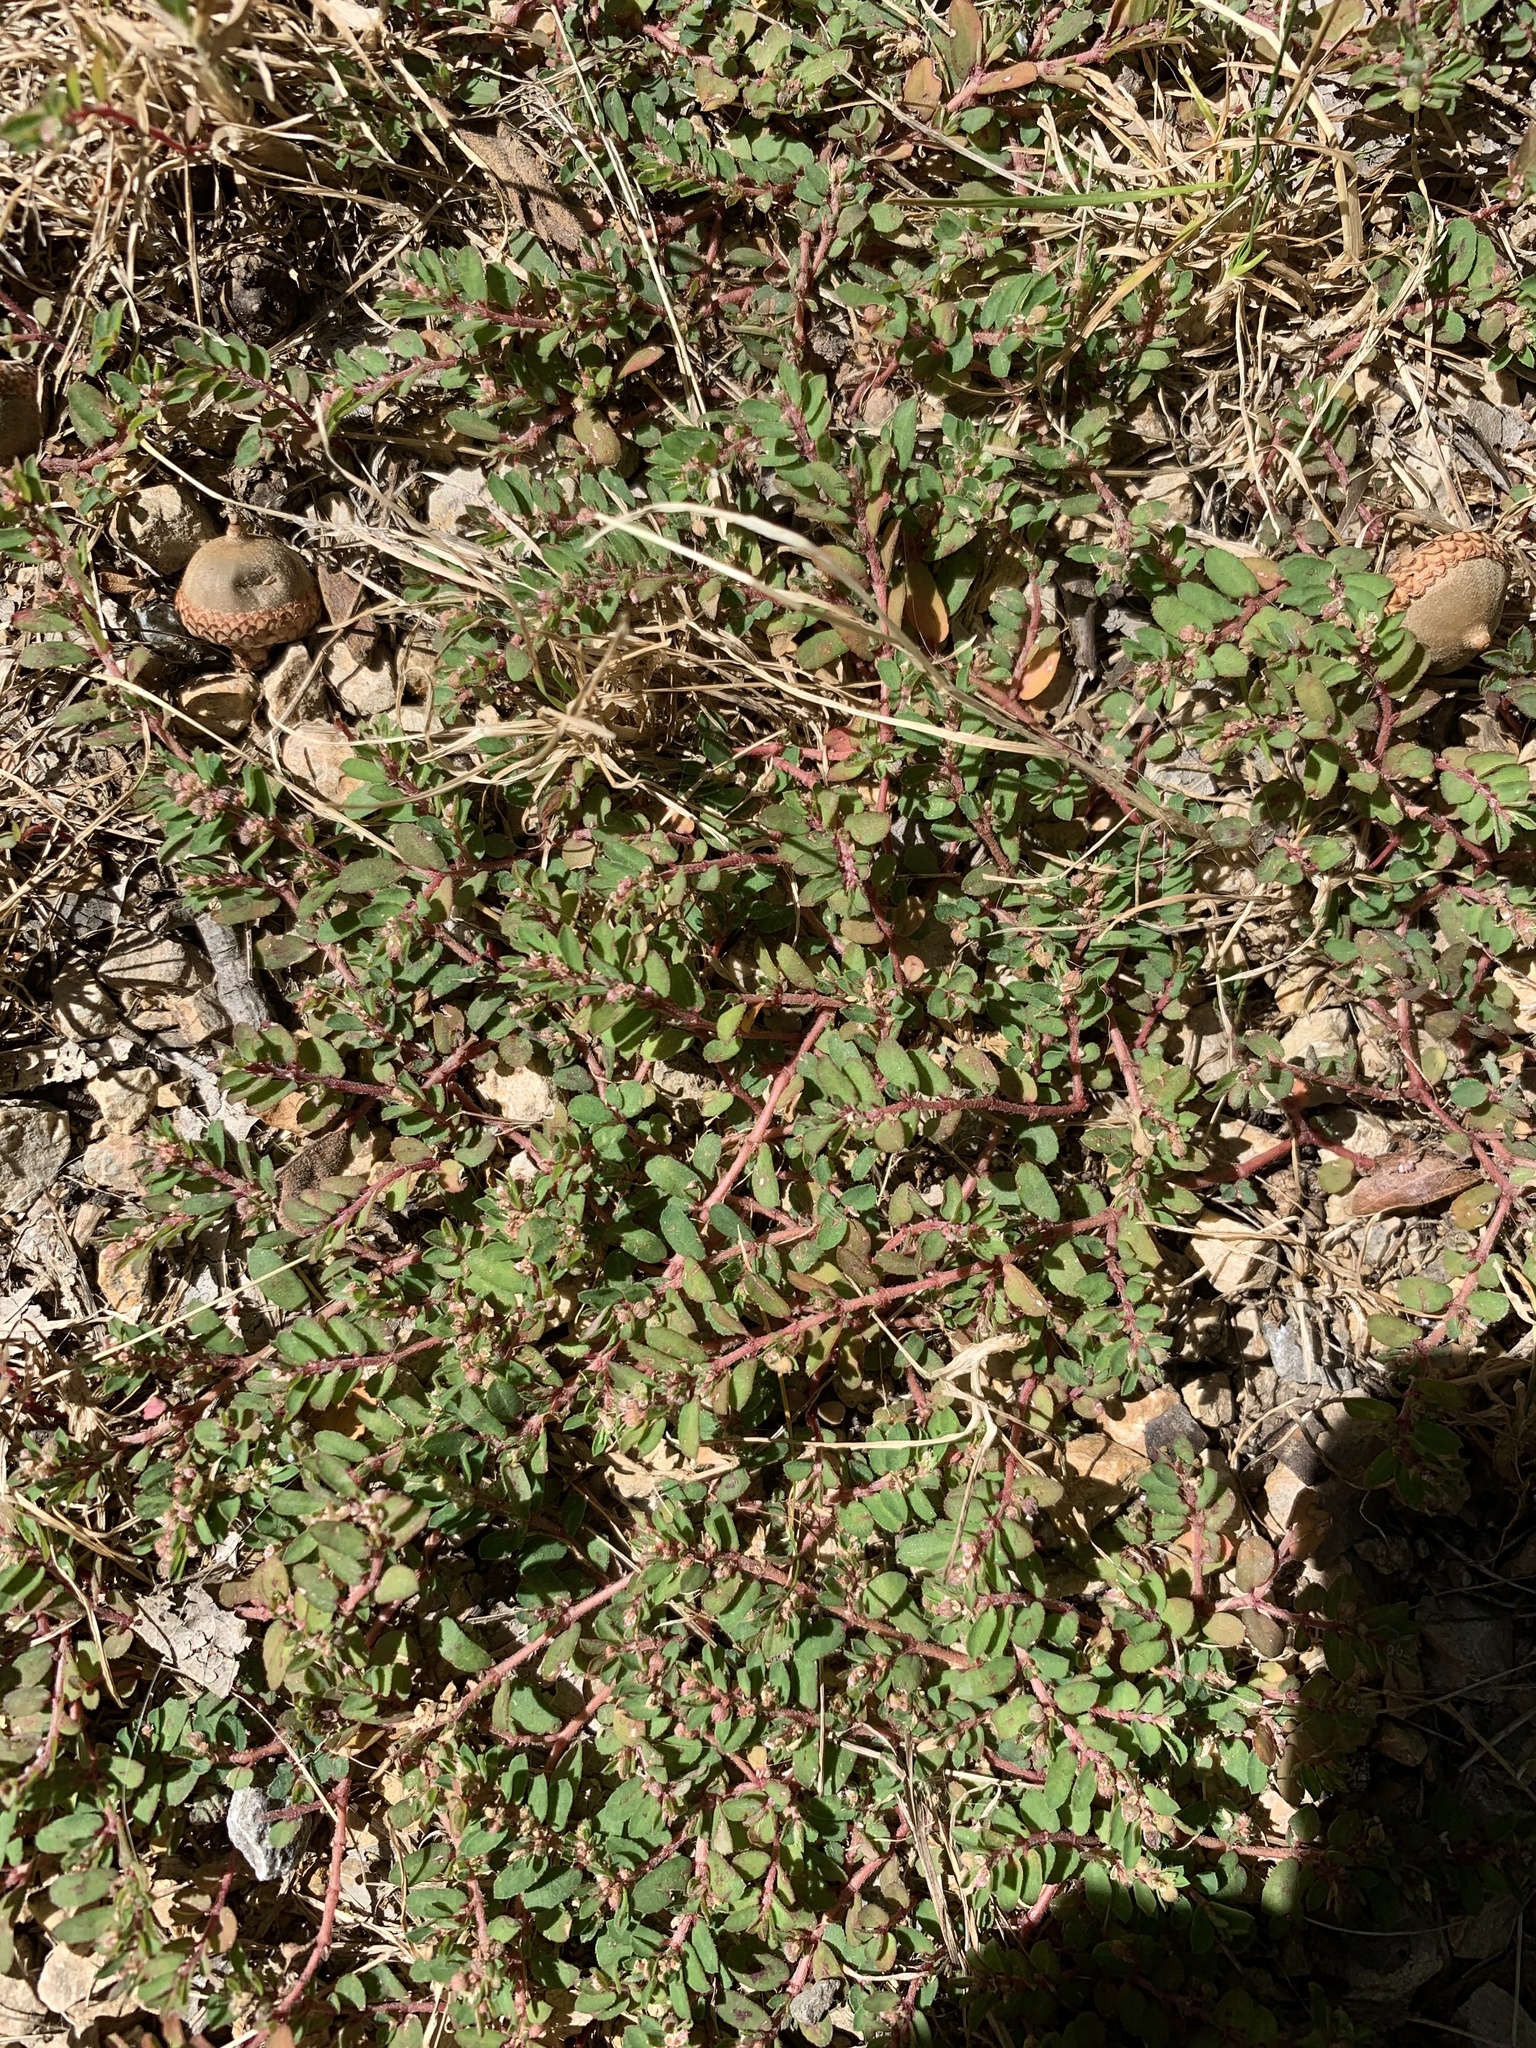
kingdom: Plantae
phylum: Tracheophyta
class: Magnoliopsida
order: Malpighiales
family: Euphorbiaceae
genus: Euphorbia
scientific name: Euphorbia maculata
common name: Spotted spurge
